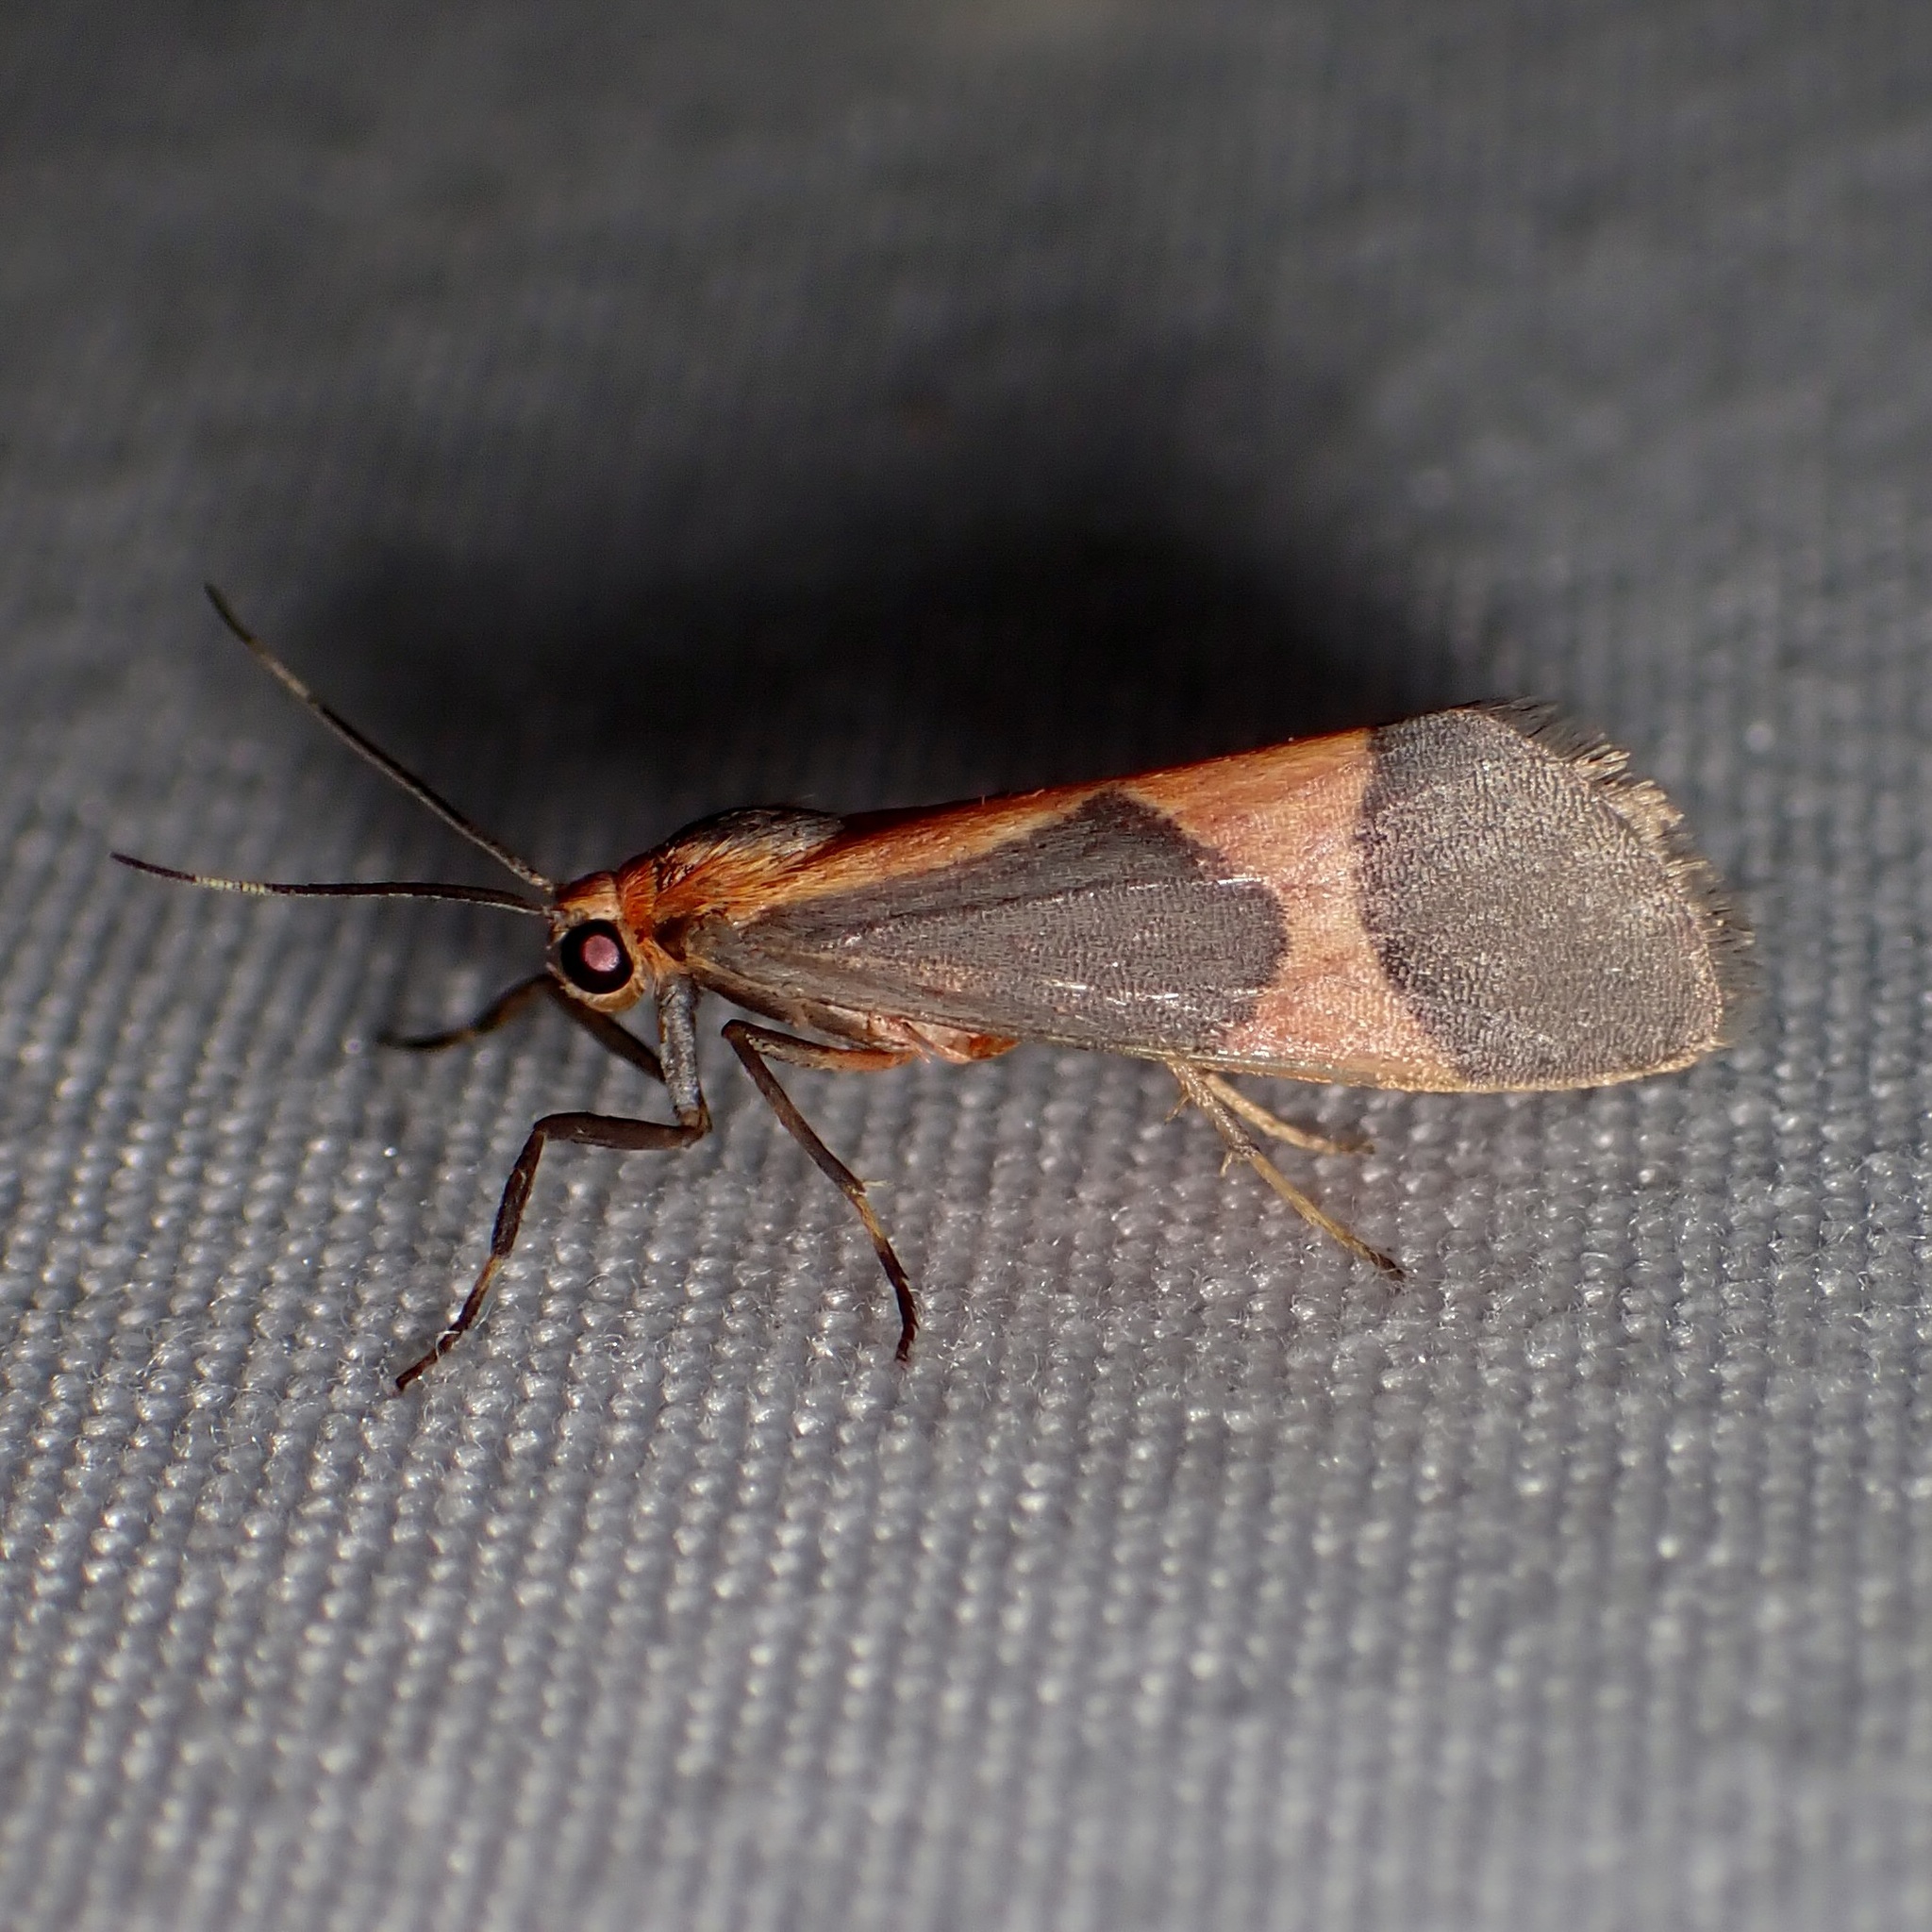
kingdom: Animalia
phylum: Arthropoda
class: Insecta
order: Lepidoptera
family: Erebidae
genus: Cisthene
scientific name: Cisthene martini
